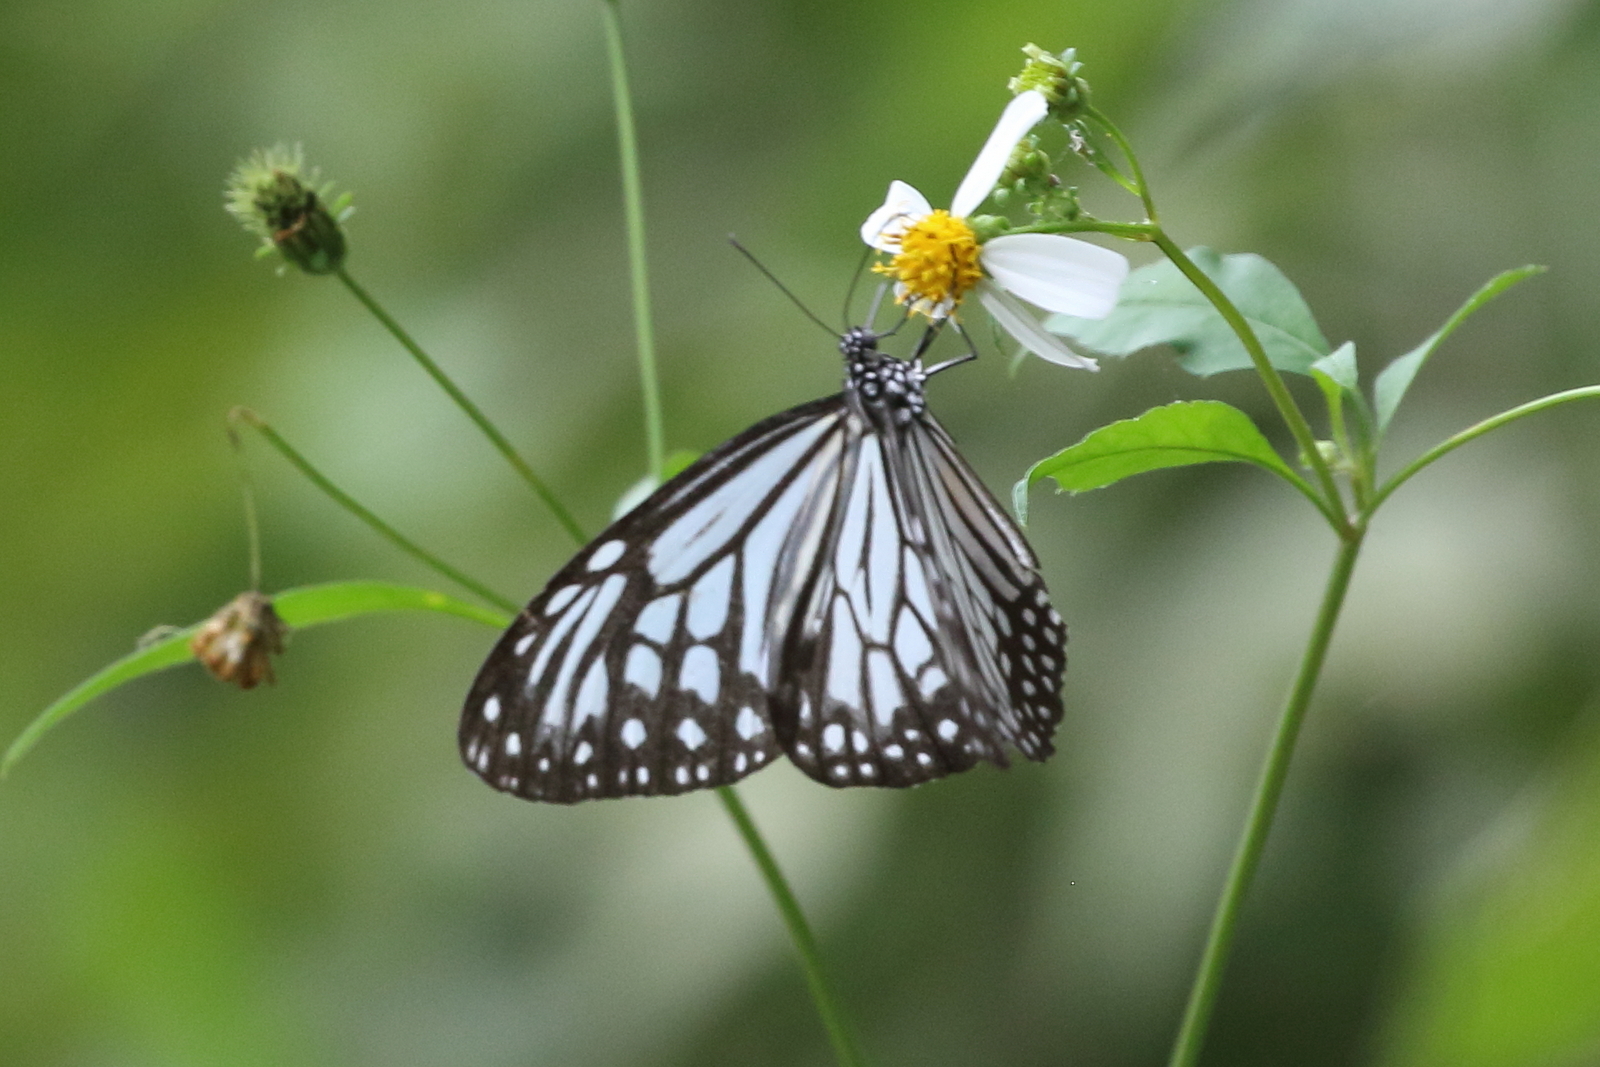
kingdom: Animalia
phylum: Arthropoda
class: Insecta
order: Lepidoptera
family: Nymphalidae
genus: Parantica
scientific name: Parantica aglea
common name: Glassy tiger
